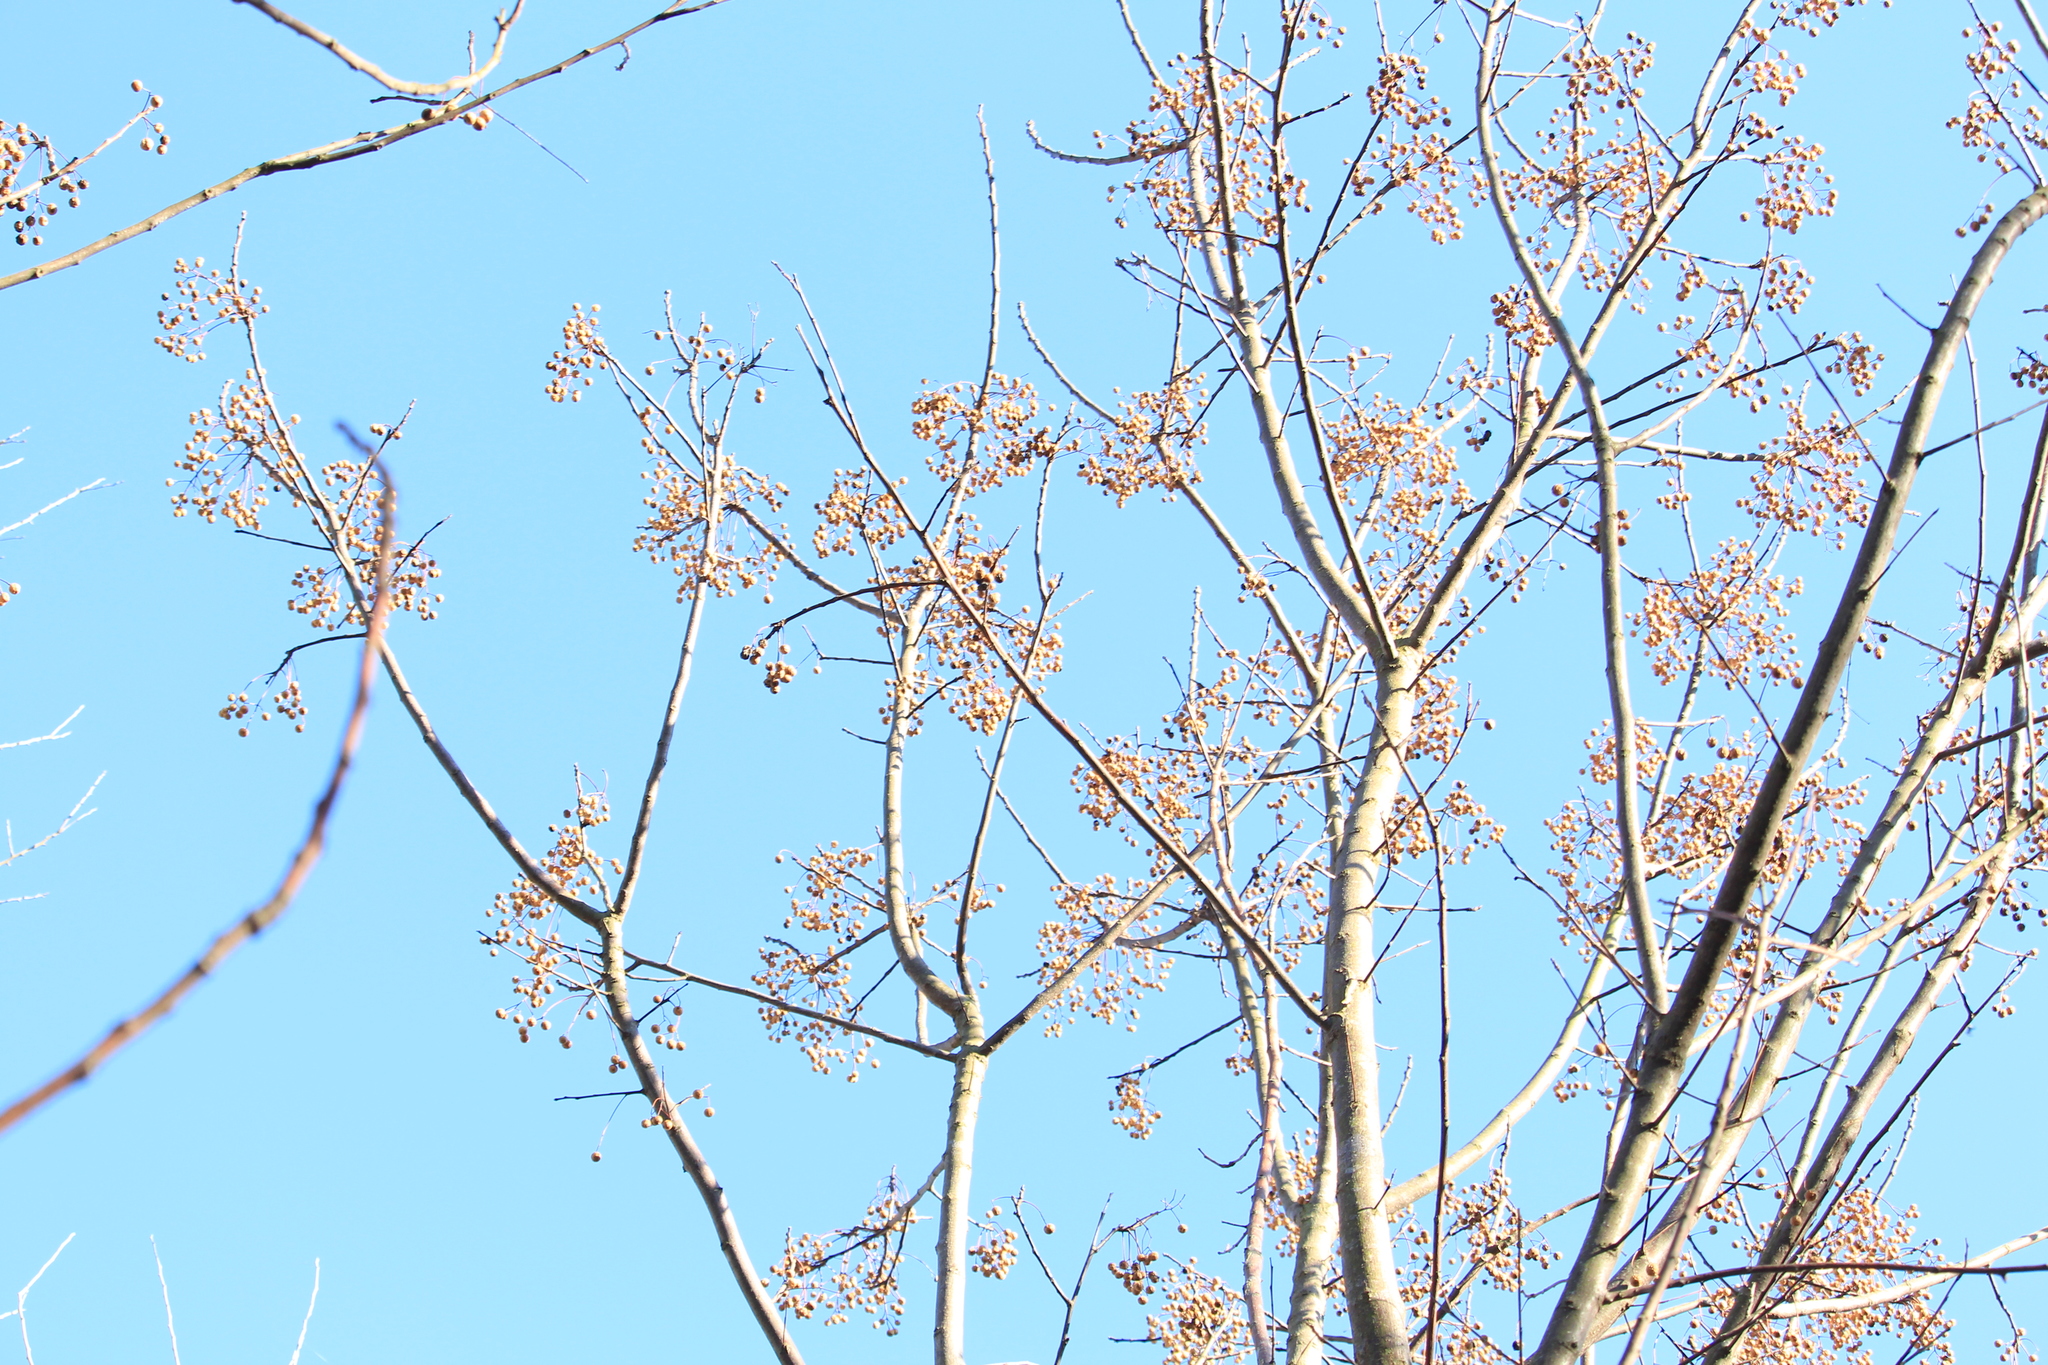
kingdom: Plantae
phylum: Tracheophyta
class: Magnoliopsida
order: Sapindales
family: Meliaceae
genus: Melia
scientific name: Melia azedarach
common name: Chinaberrytree
